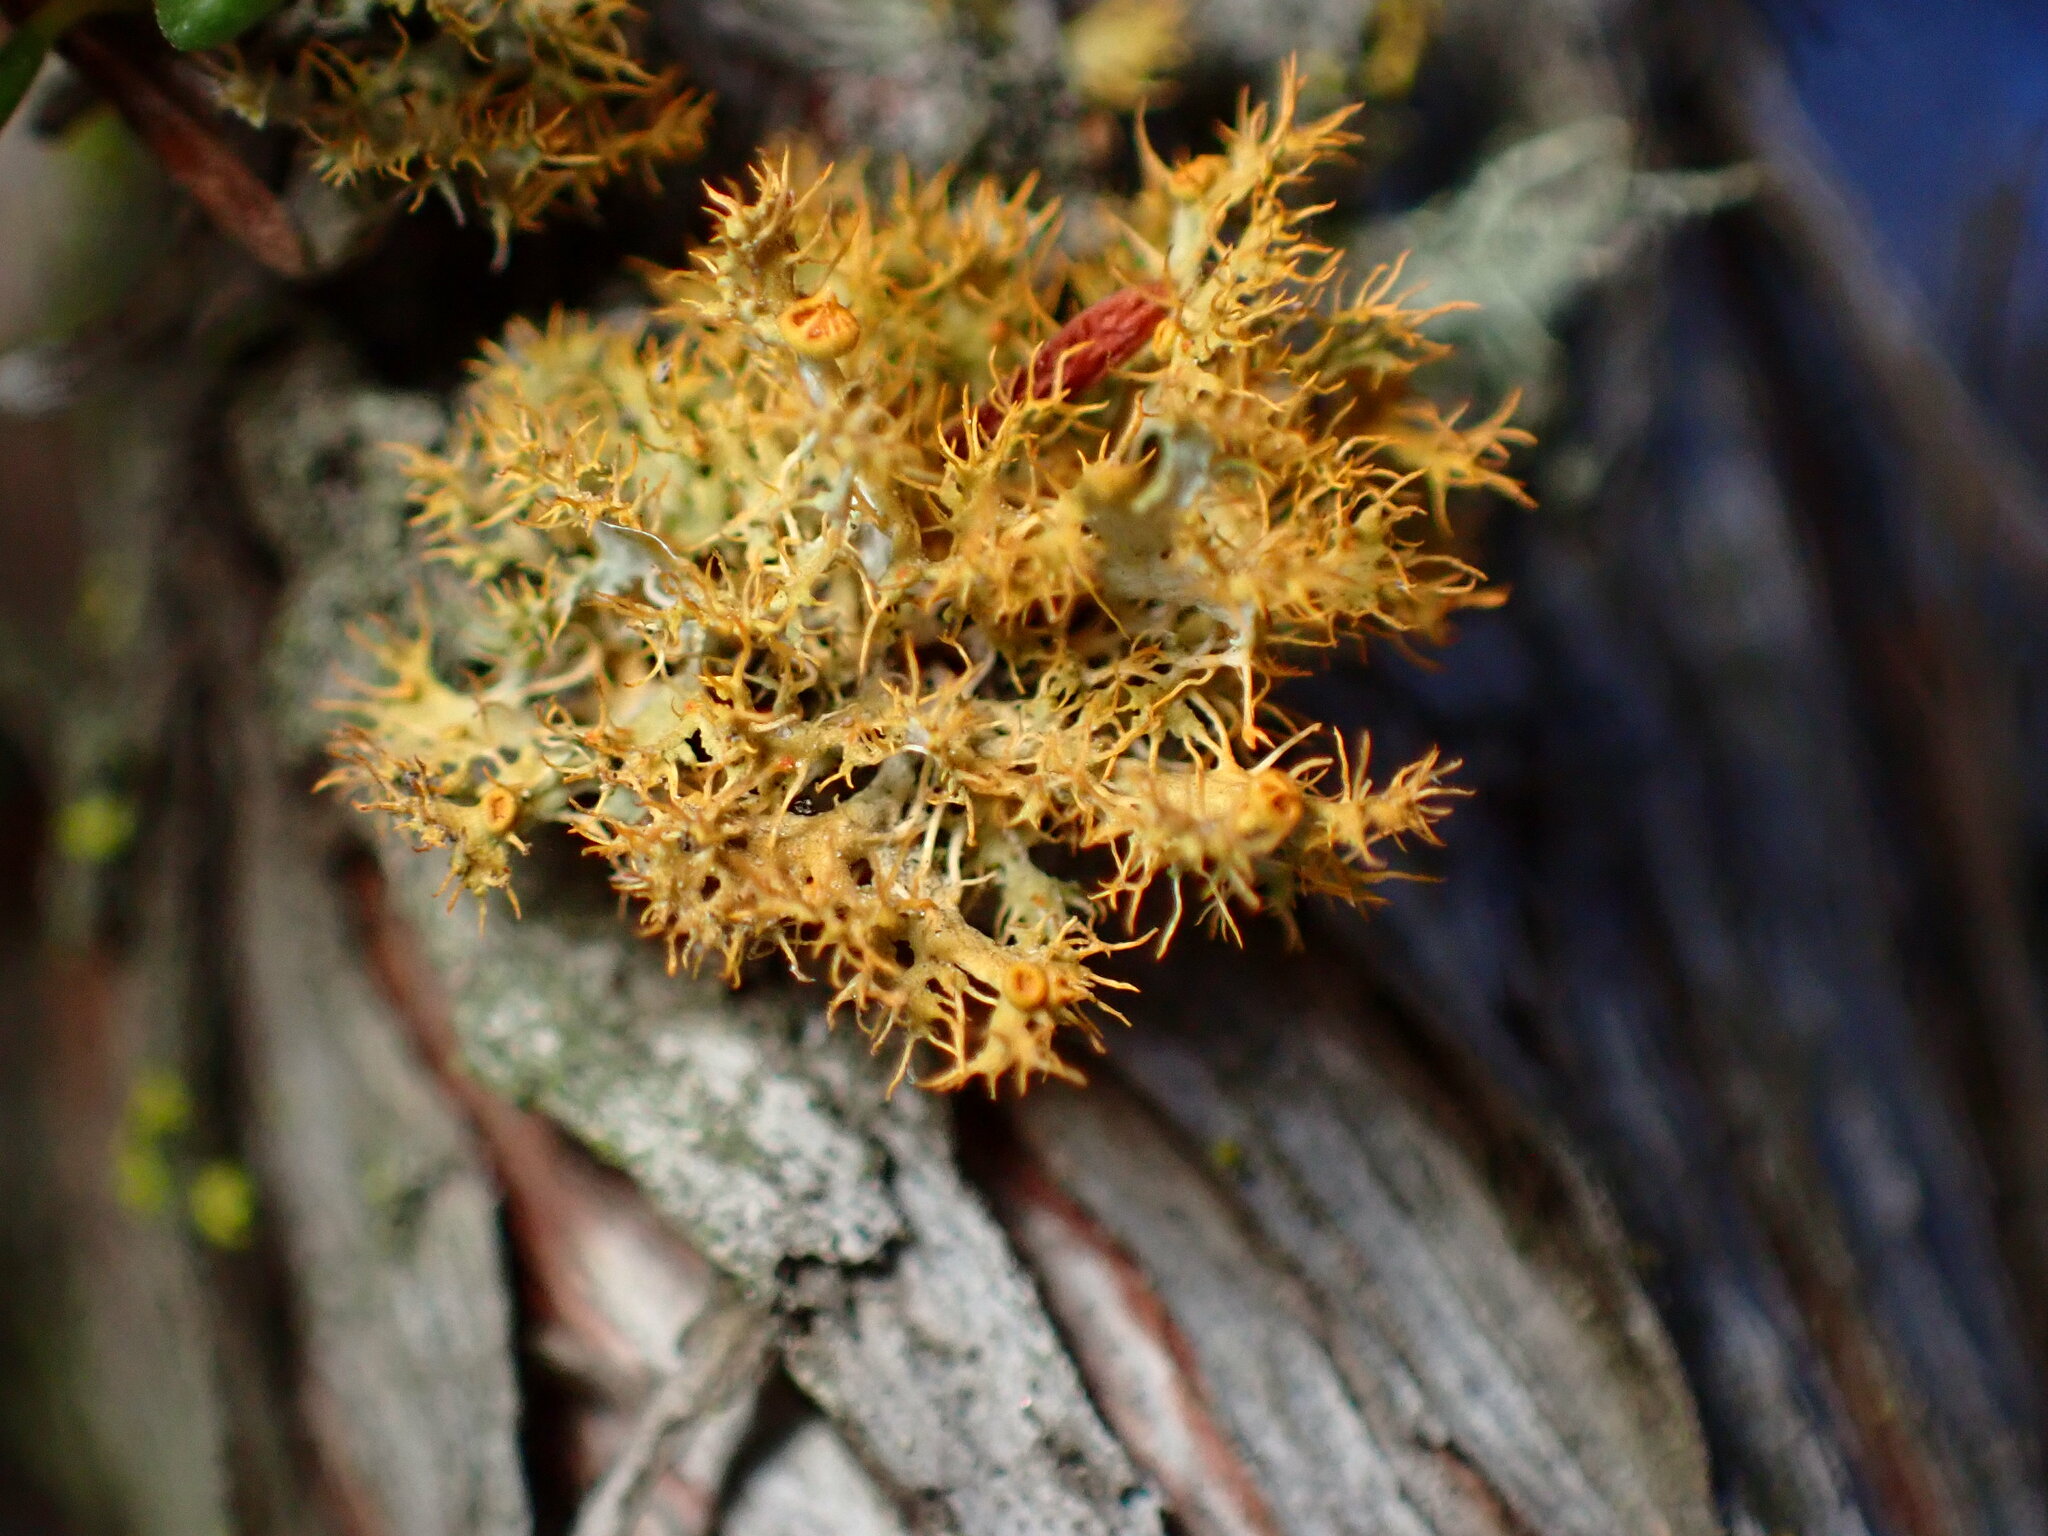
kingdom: Fungi
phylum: Ascomycota
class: Lecanoromycetes
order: Teloschistales
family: Teloschistaceae
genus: Niorma
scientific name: Niorma chrysophthalma
